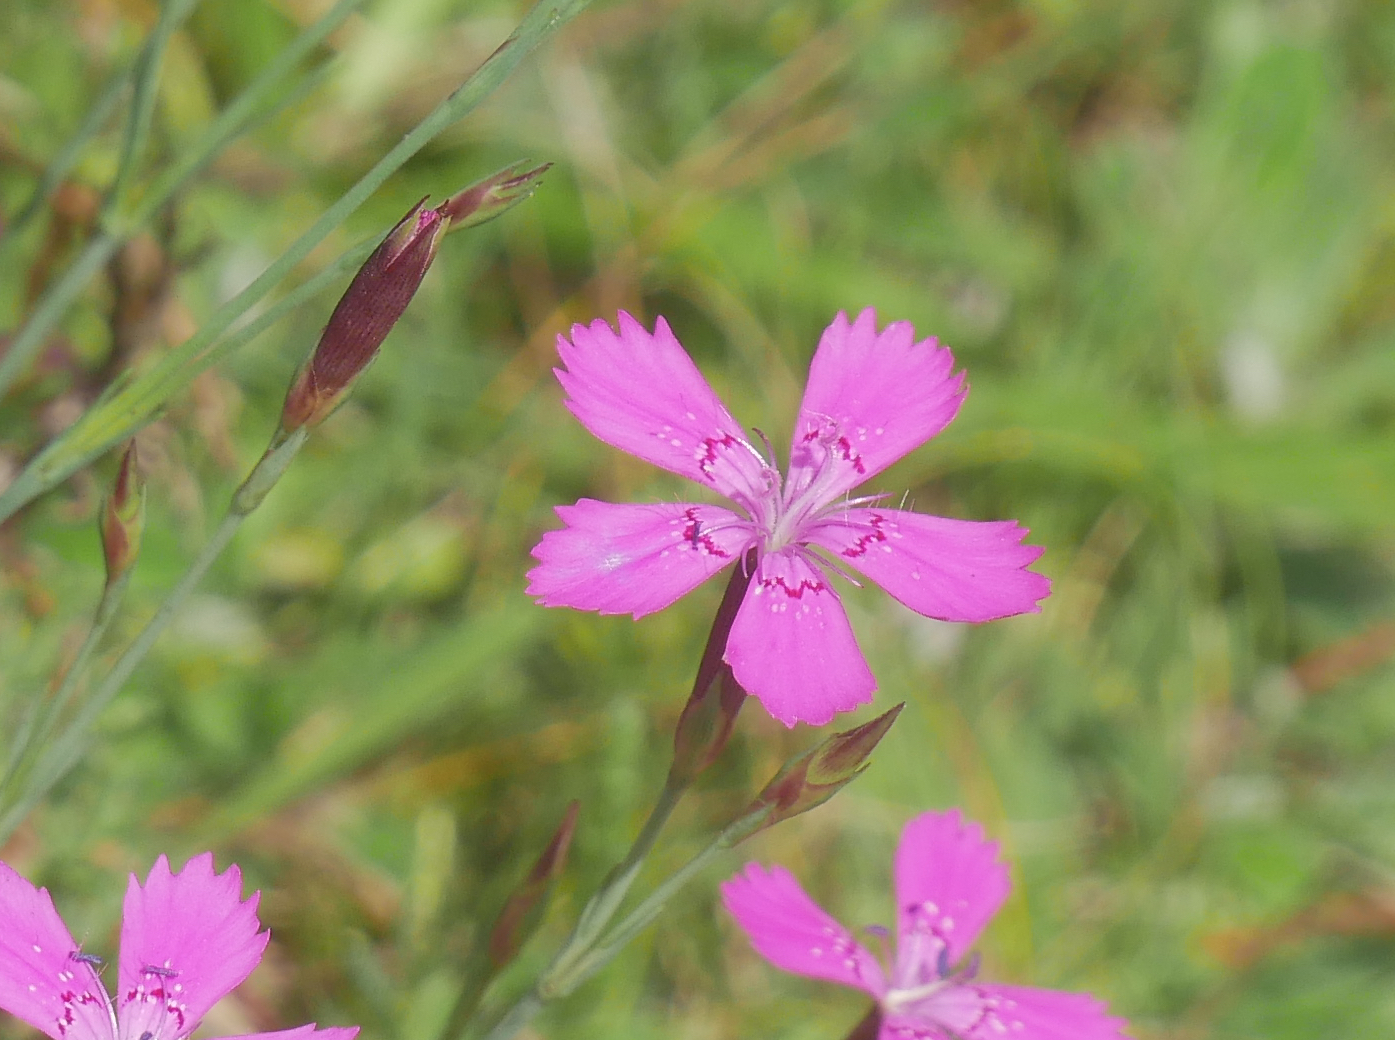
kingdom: Plantae
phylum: Tracheophyta
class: Magnoliopsida
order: Caryophyllales
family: Caryophyllaceae
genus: Dianthus
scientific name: Dianthus deltoides
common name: Maiden pink
